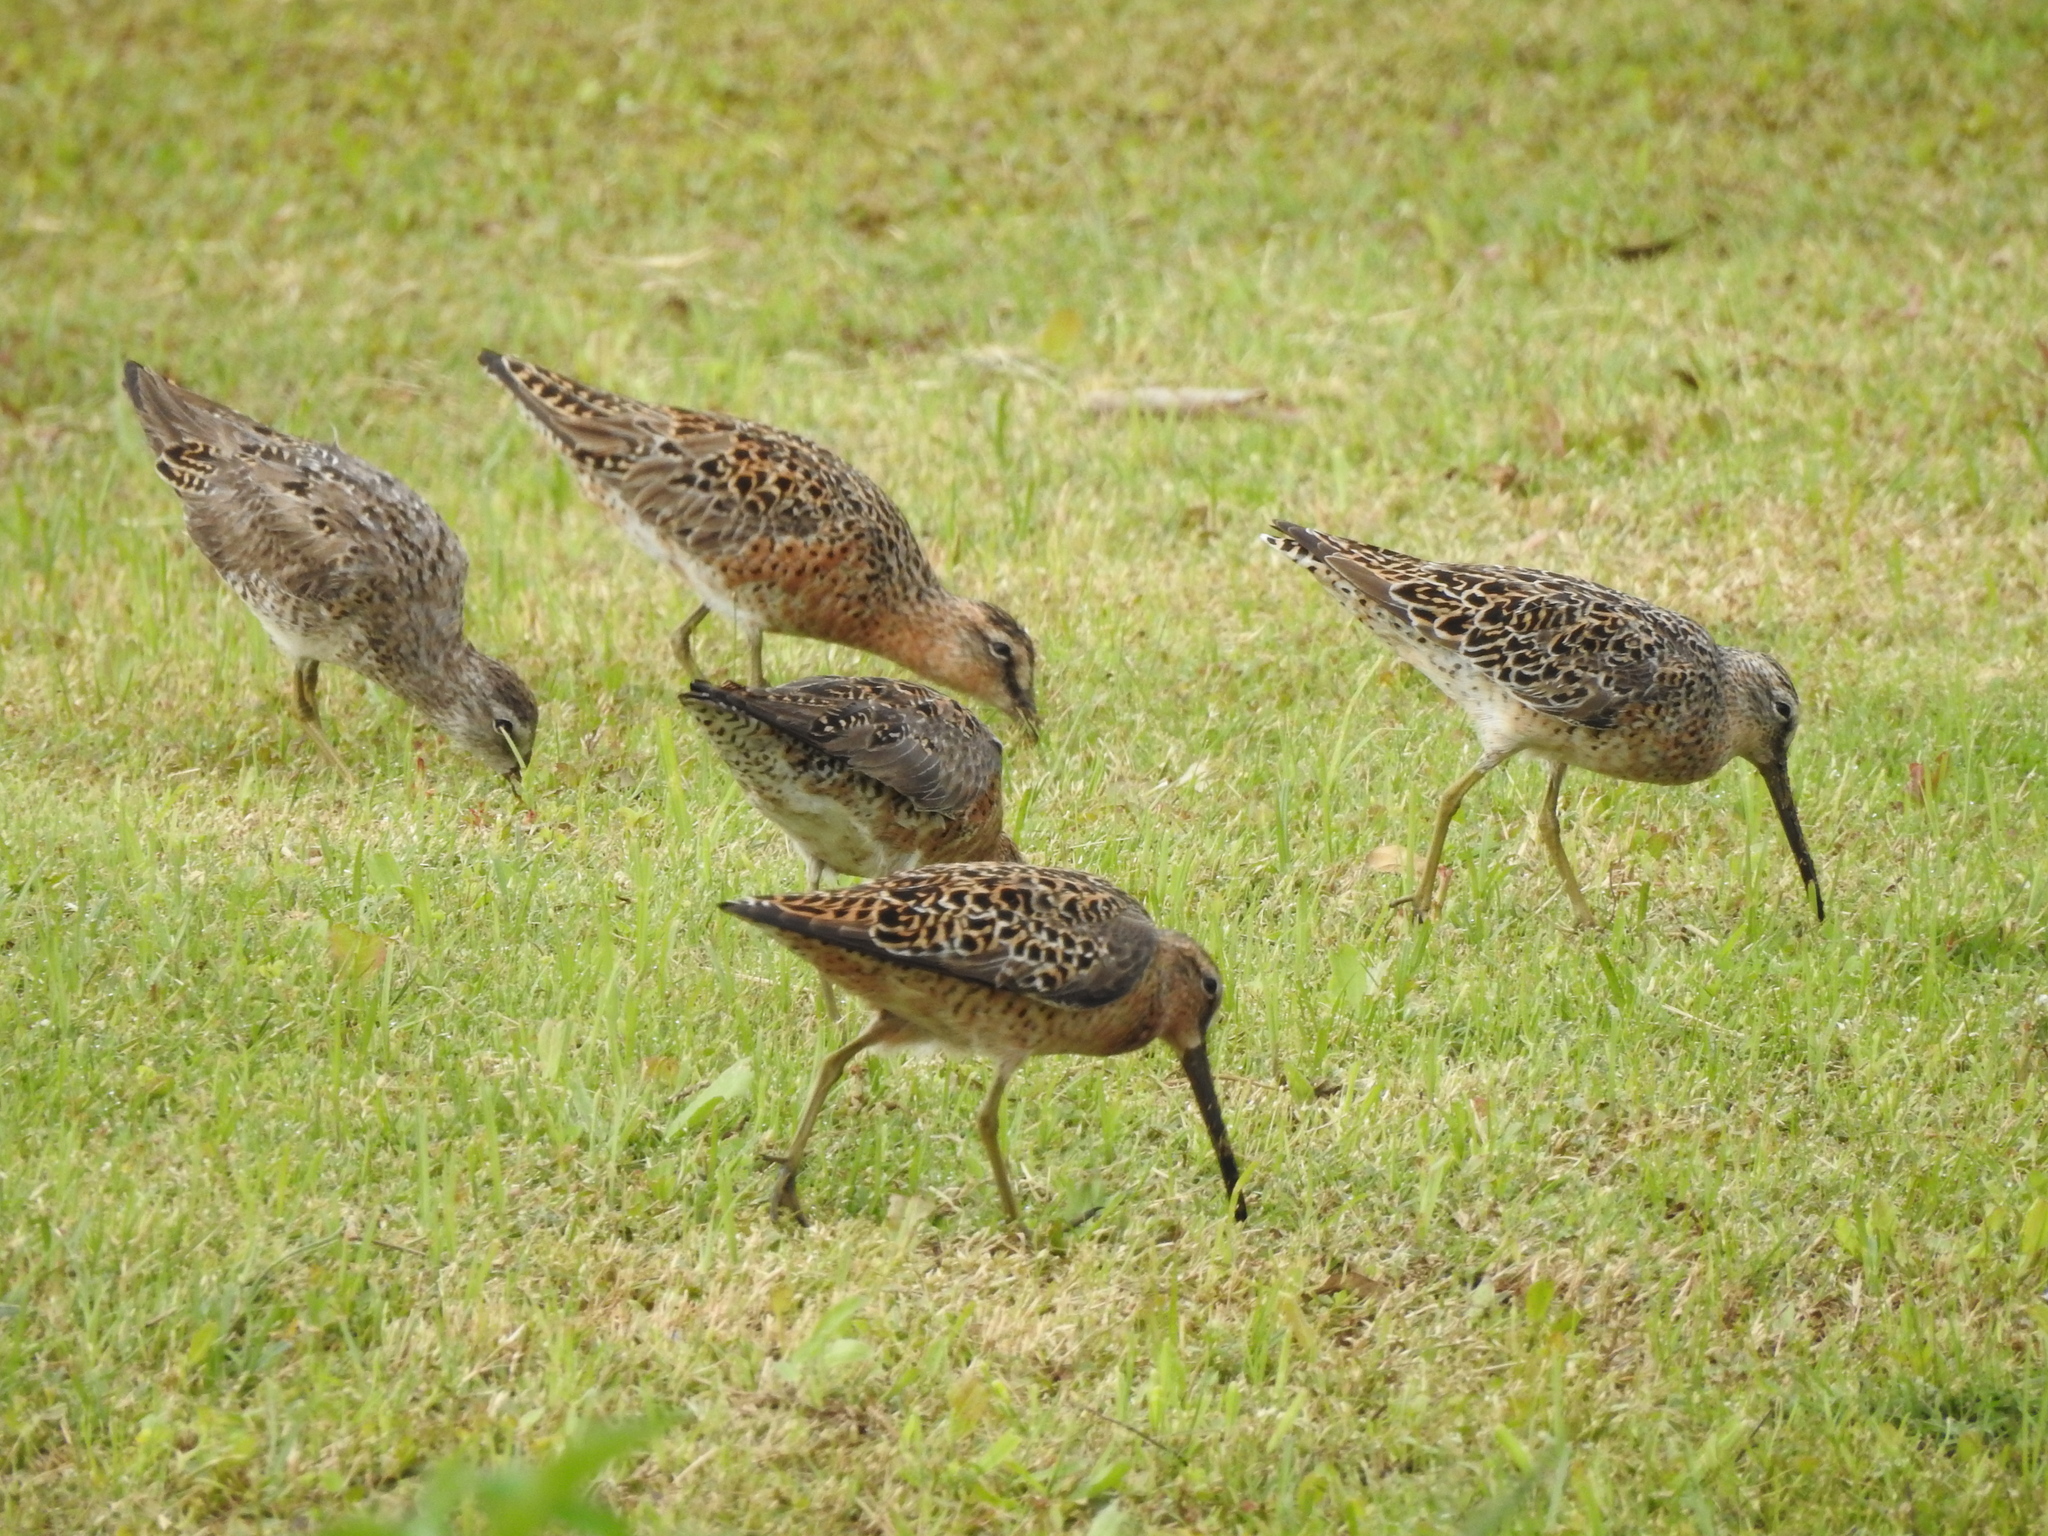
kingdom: Animalia
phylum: Chordata
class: Aves
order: Charadriiformes
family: Scolopacidae
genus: Limnodromus
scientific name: Limnodromus griseus
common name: Short-billed dowitcher
